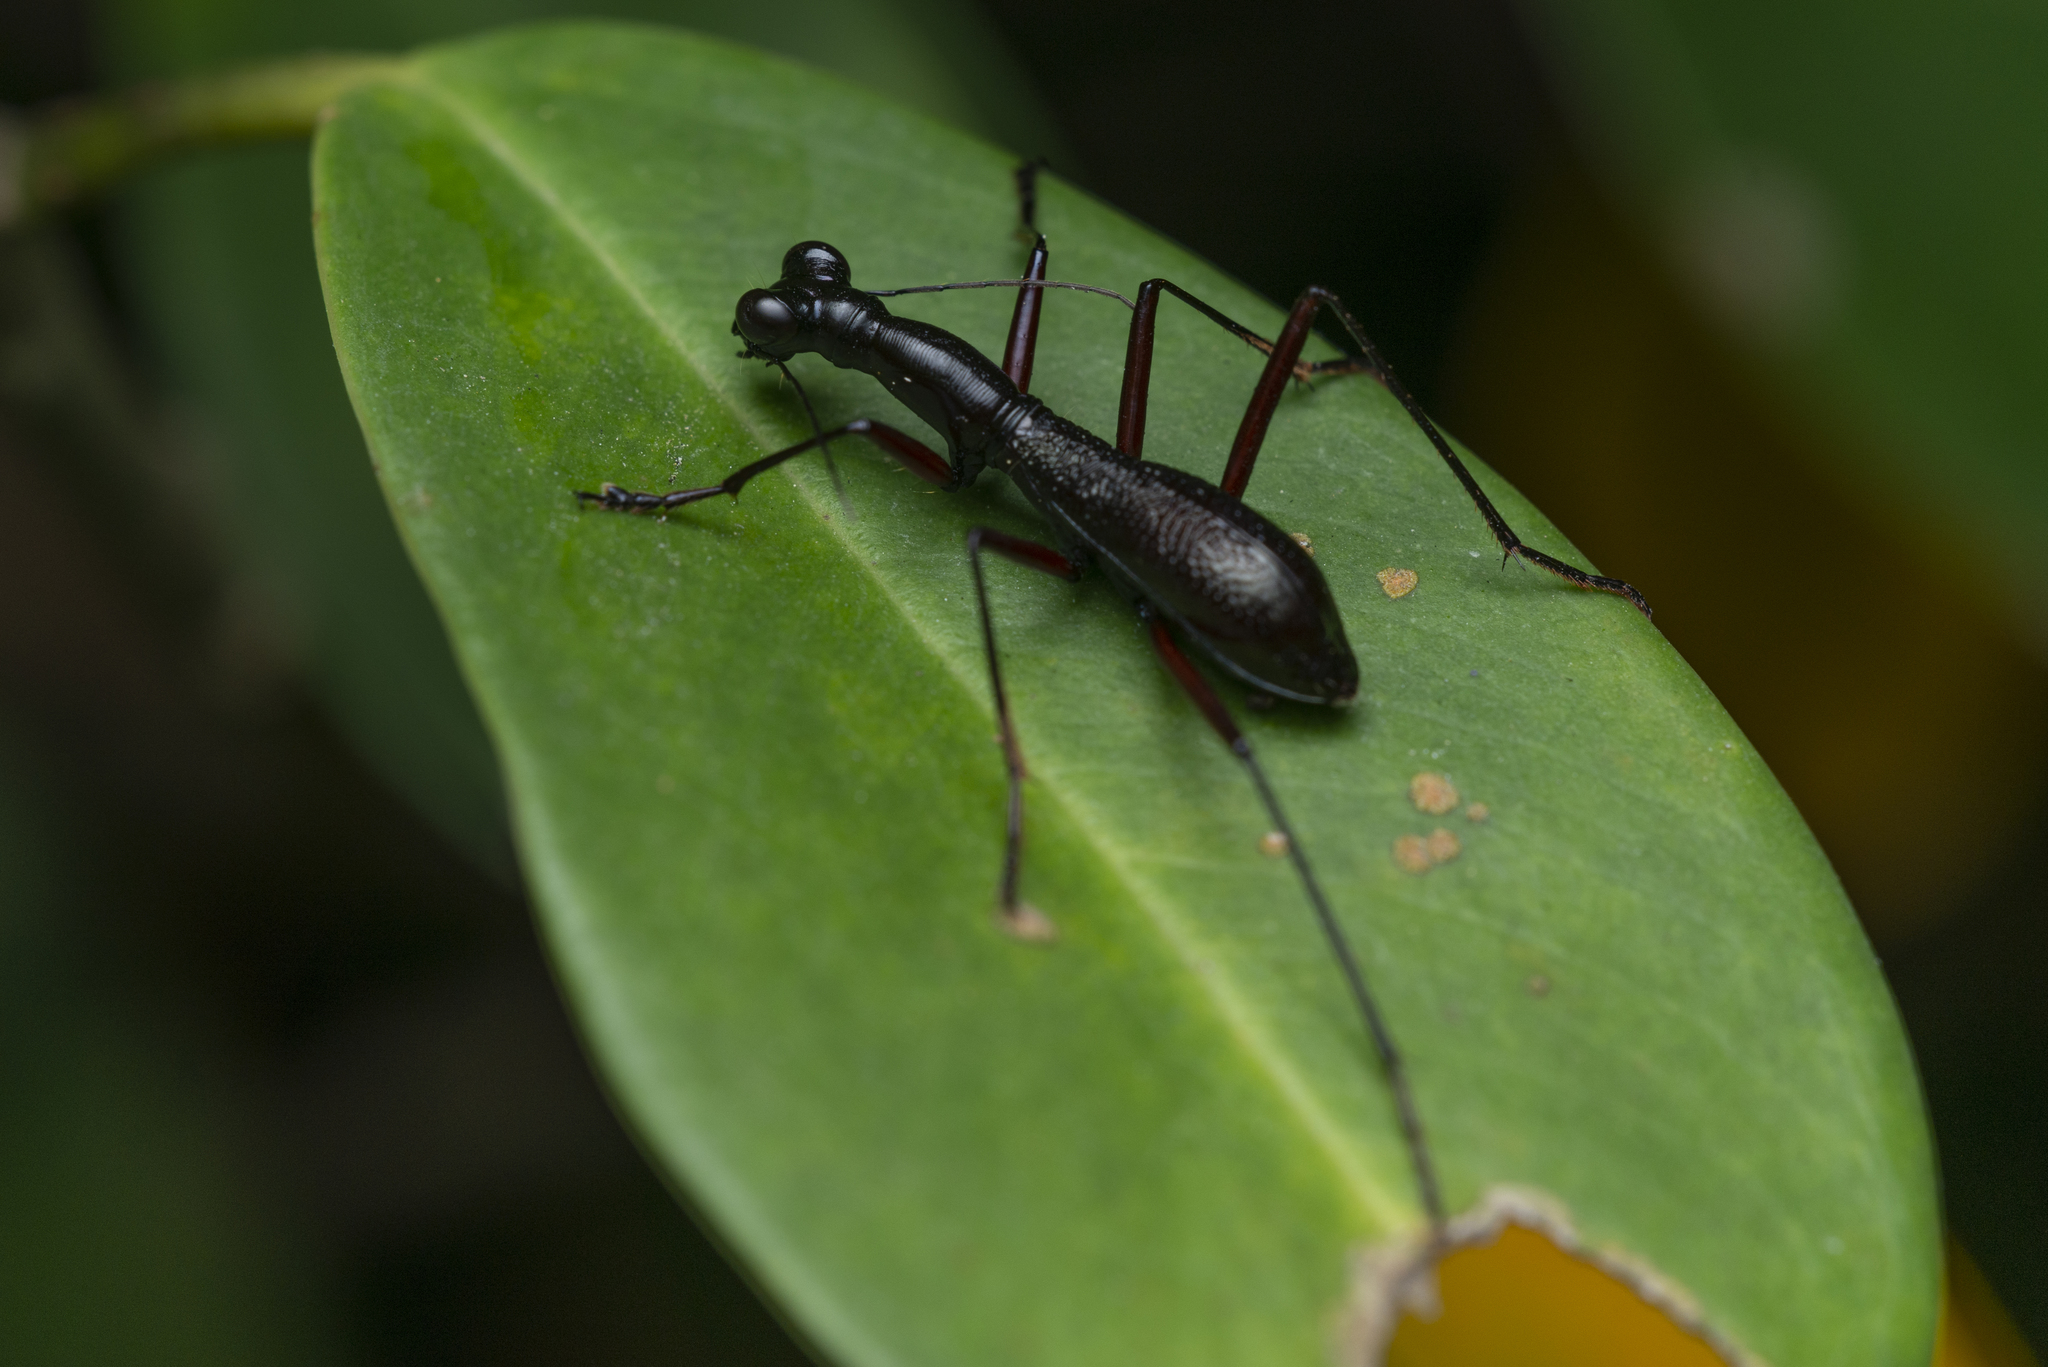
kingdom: Animalia
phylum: Arthropoda
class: Insecta
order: Coleoptera
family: Carabidae
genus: Tricondyla
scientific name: Tricondyla pulchripes
